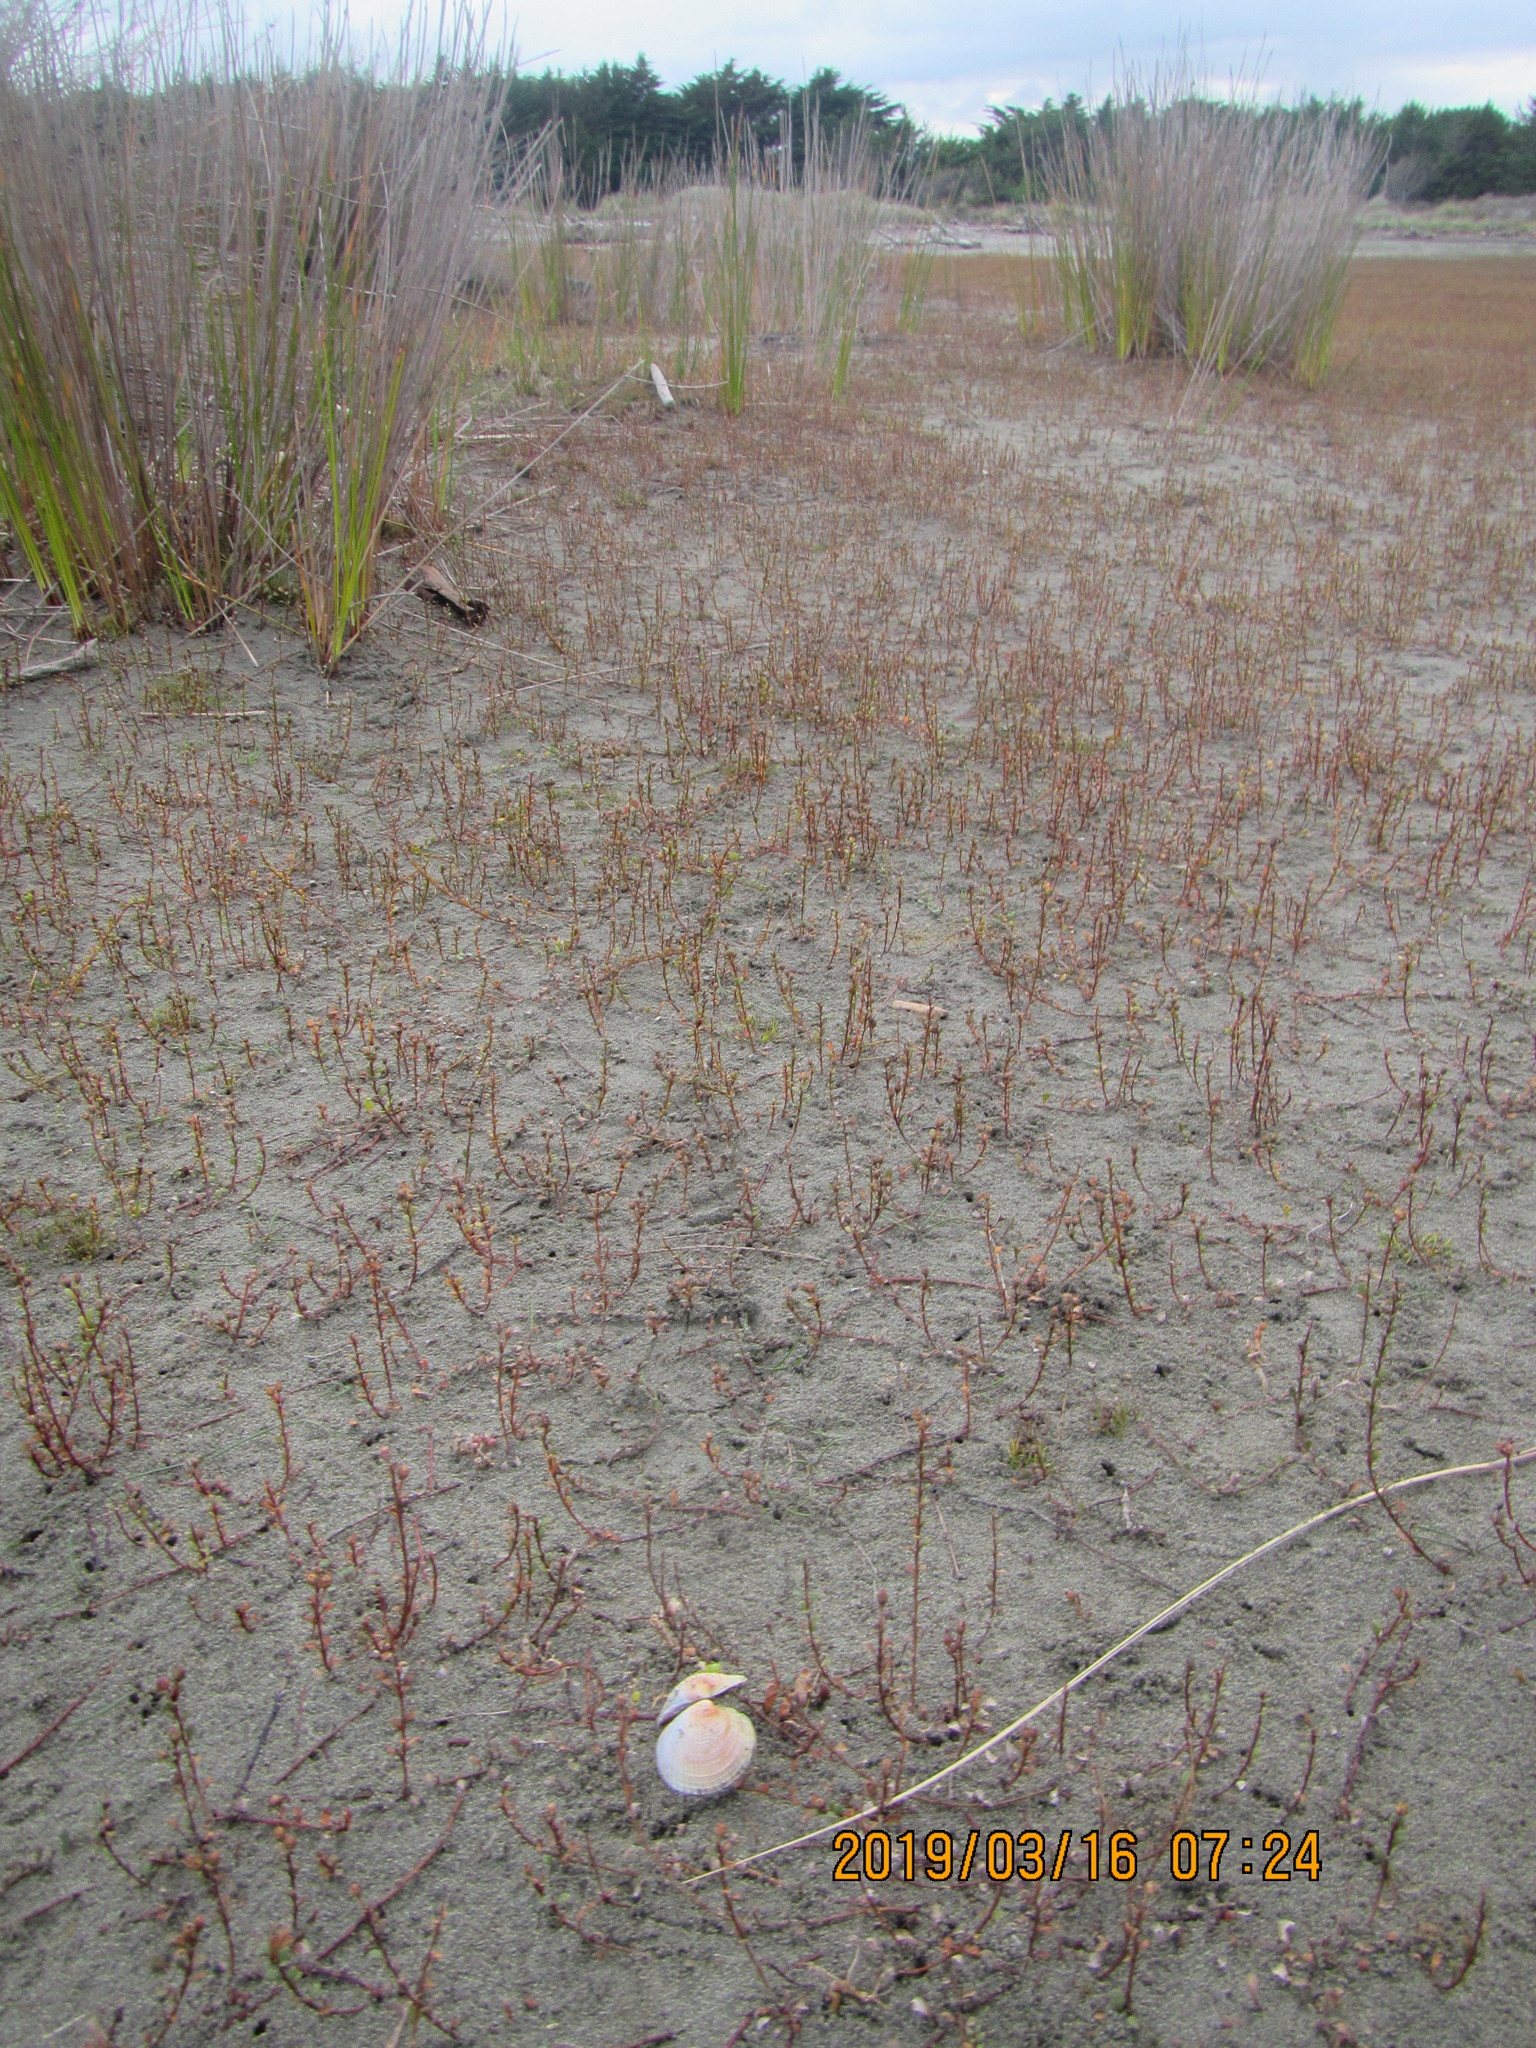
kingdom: Animalia
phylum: Mollusca
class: Bivalvia
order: Venerida
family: Veneridae
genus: Austrovenus
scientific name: Austrovenus stutchburyi
